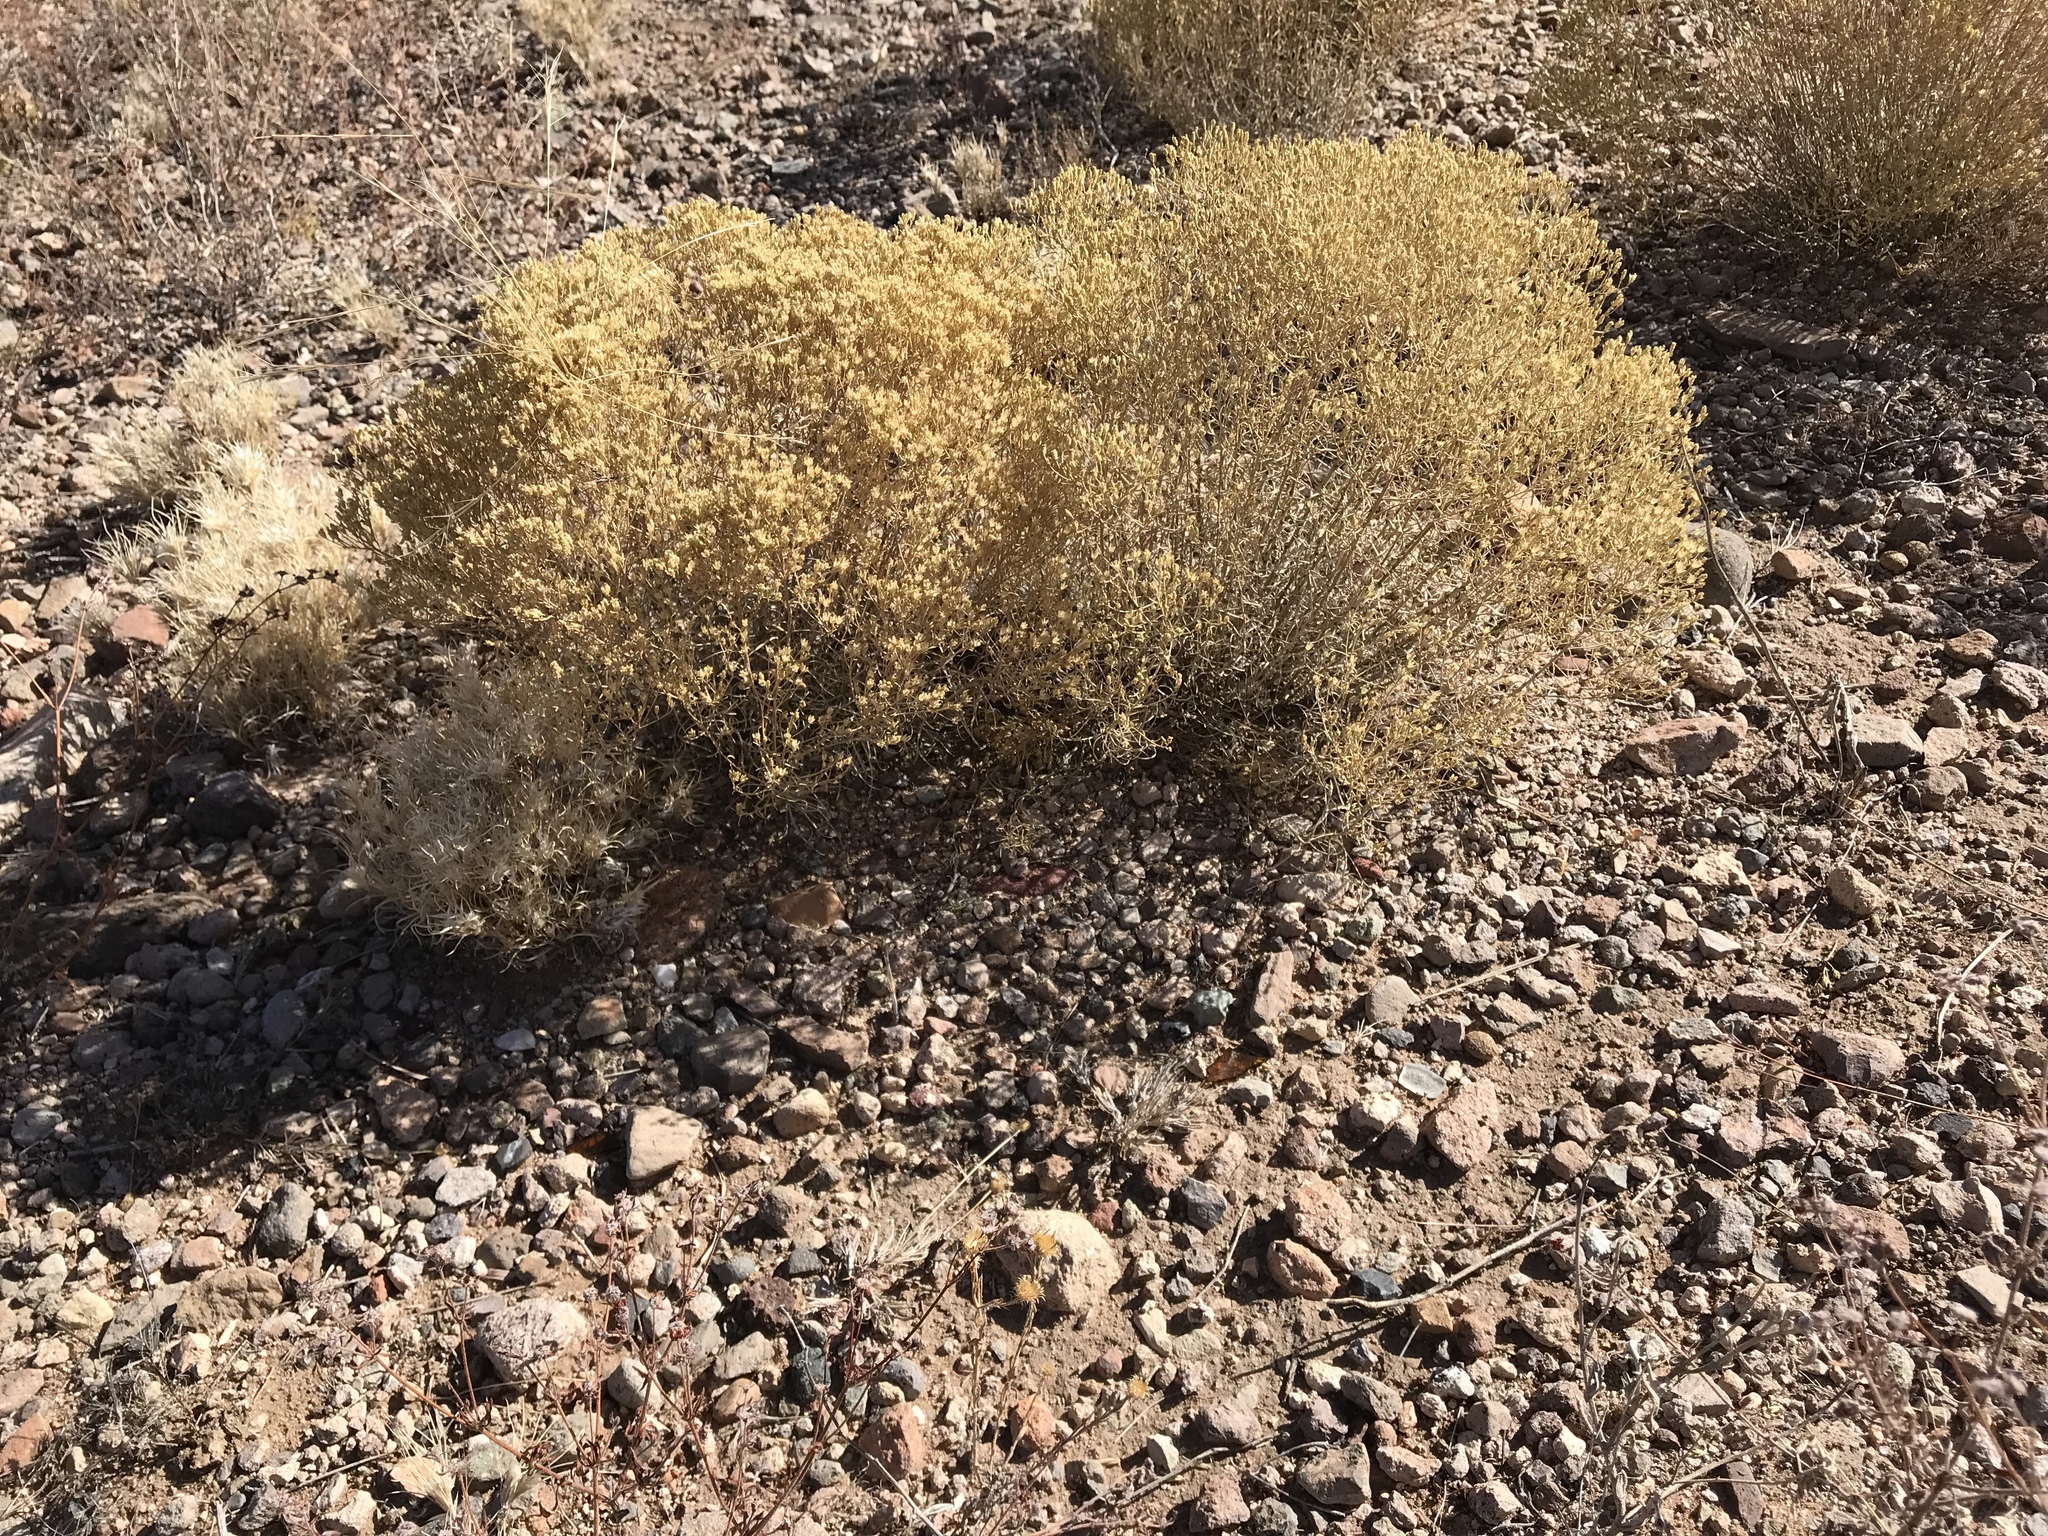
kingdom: Plantae
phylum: Tracheophyta
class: Magnoliopsida
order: Asterales
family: Asteraceae
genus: Gutierrezia
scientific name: Gutierrezia sarothrae
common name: Broom snakeweed
